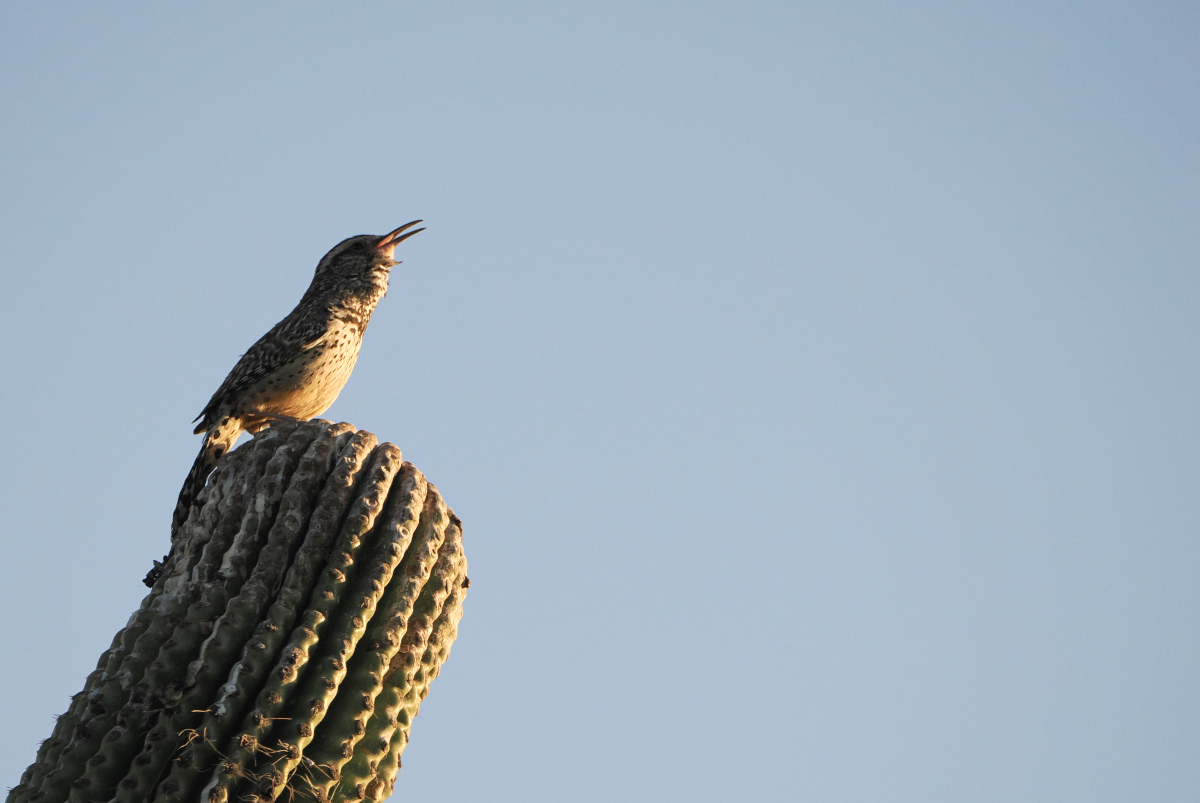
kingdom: Animalia
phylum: Chordata
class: Aves
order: Passeriformes
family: Troglodytidae
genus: Campylorhynchus
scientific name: Campylorhynchus brunneicapillus
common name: Cactus wren
